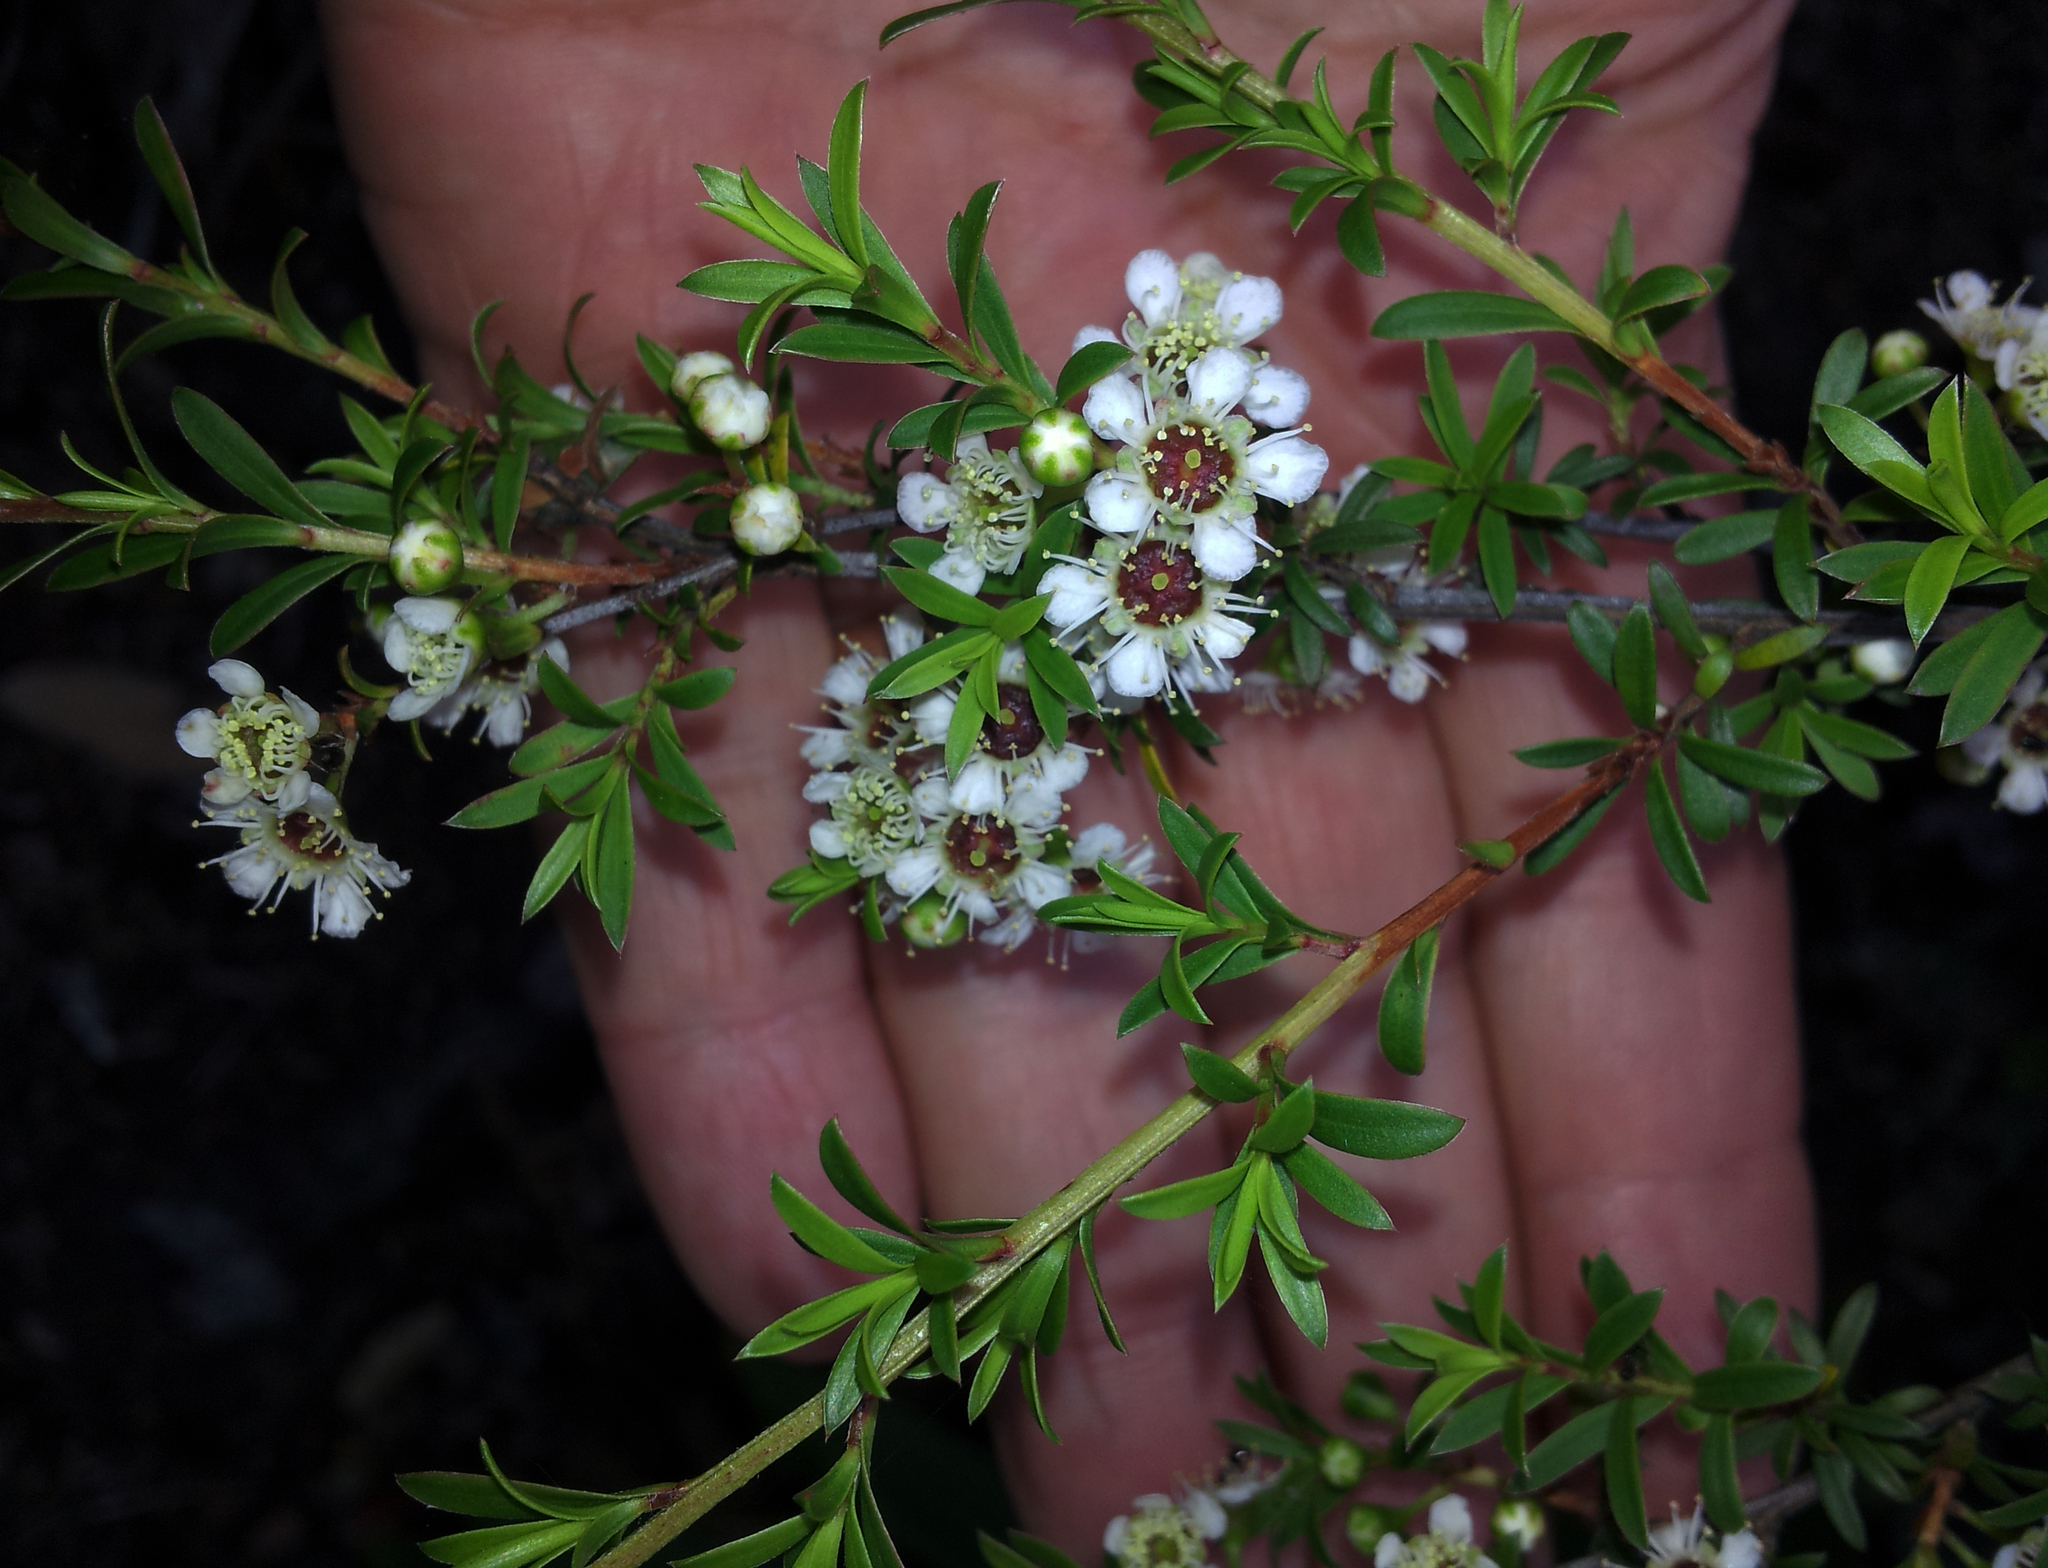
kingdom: Plantae
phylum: Tracheophyta
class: Magnoliopsida
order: Myrtales
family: Myrtaceae
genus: Kunzea
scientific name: Kunzea robusta
